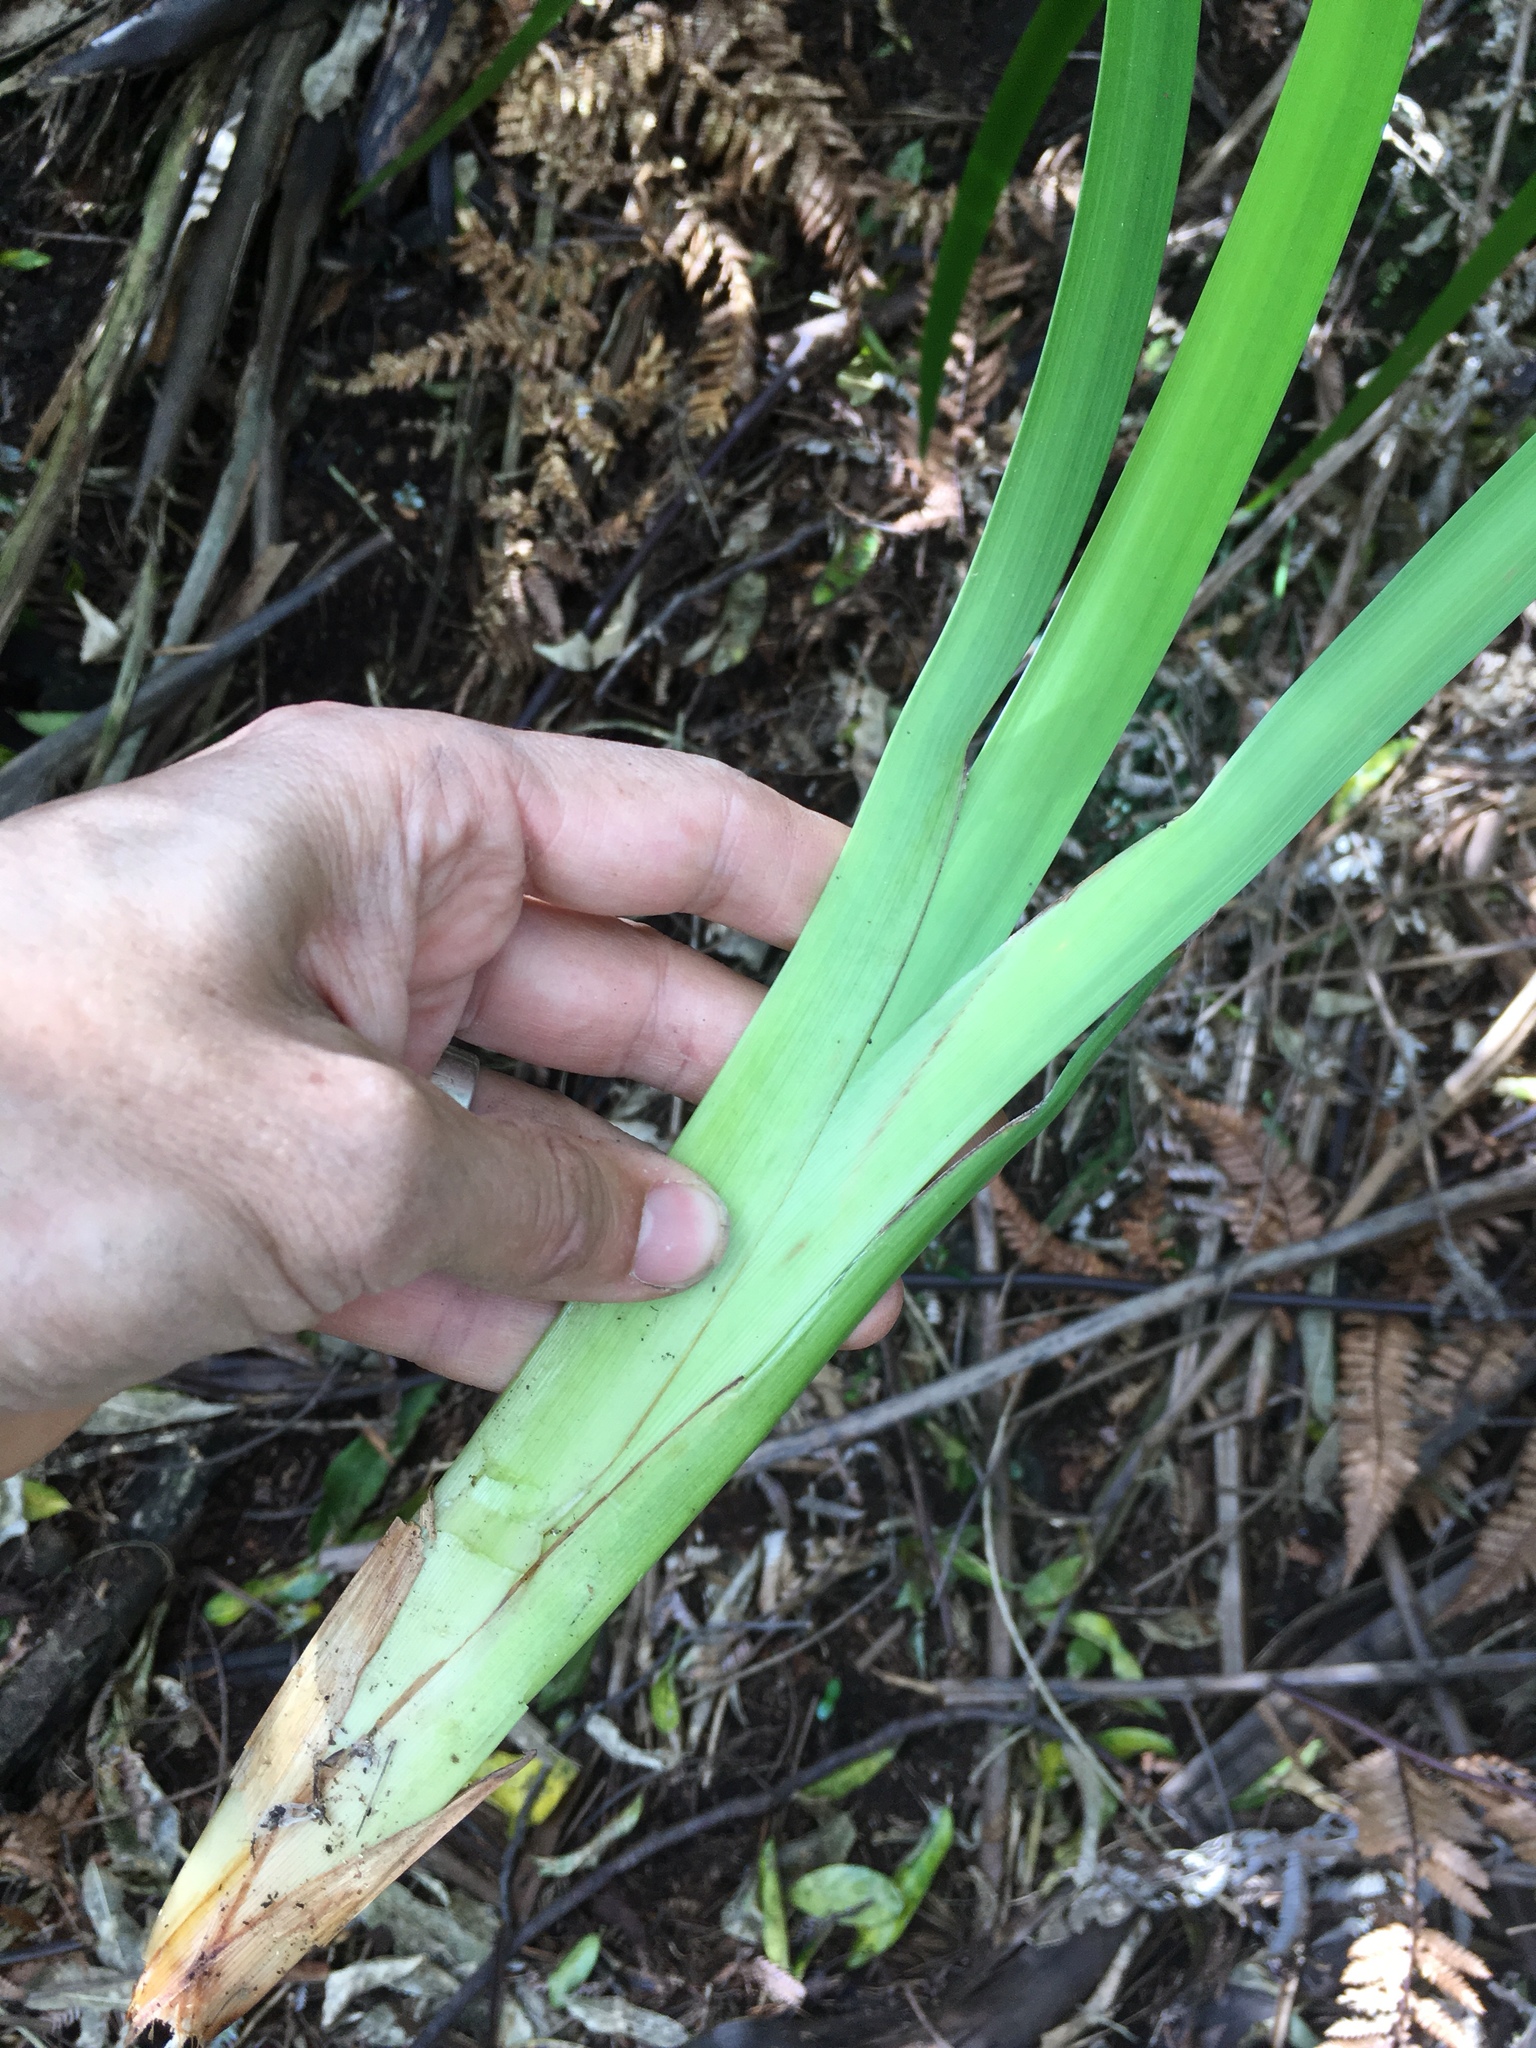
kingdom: Plantae
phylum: Tracheophyta
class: Liliopsida
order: Poales
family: Cyperaceae
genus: Machaerina
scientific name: Machaerina sinclairii
